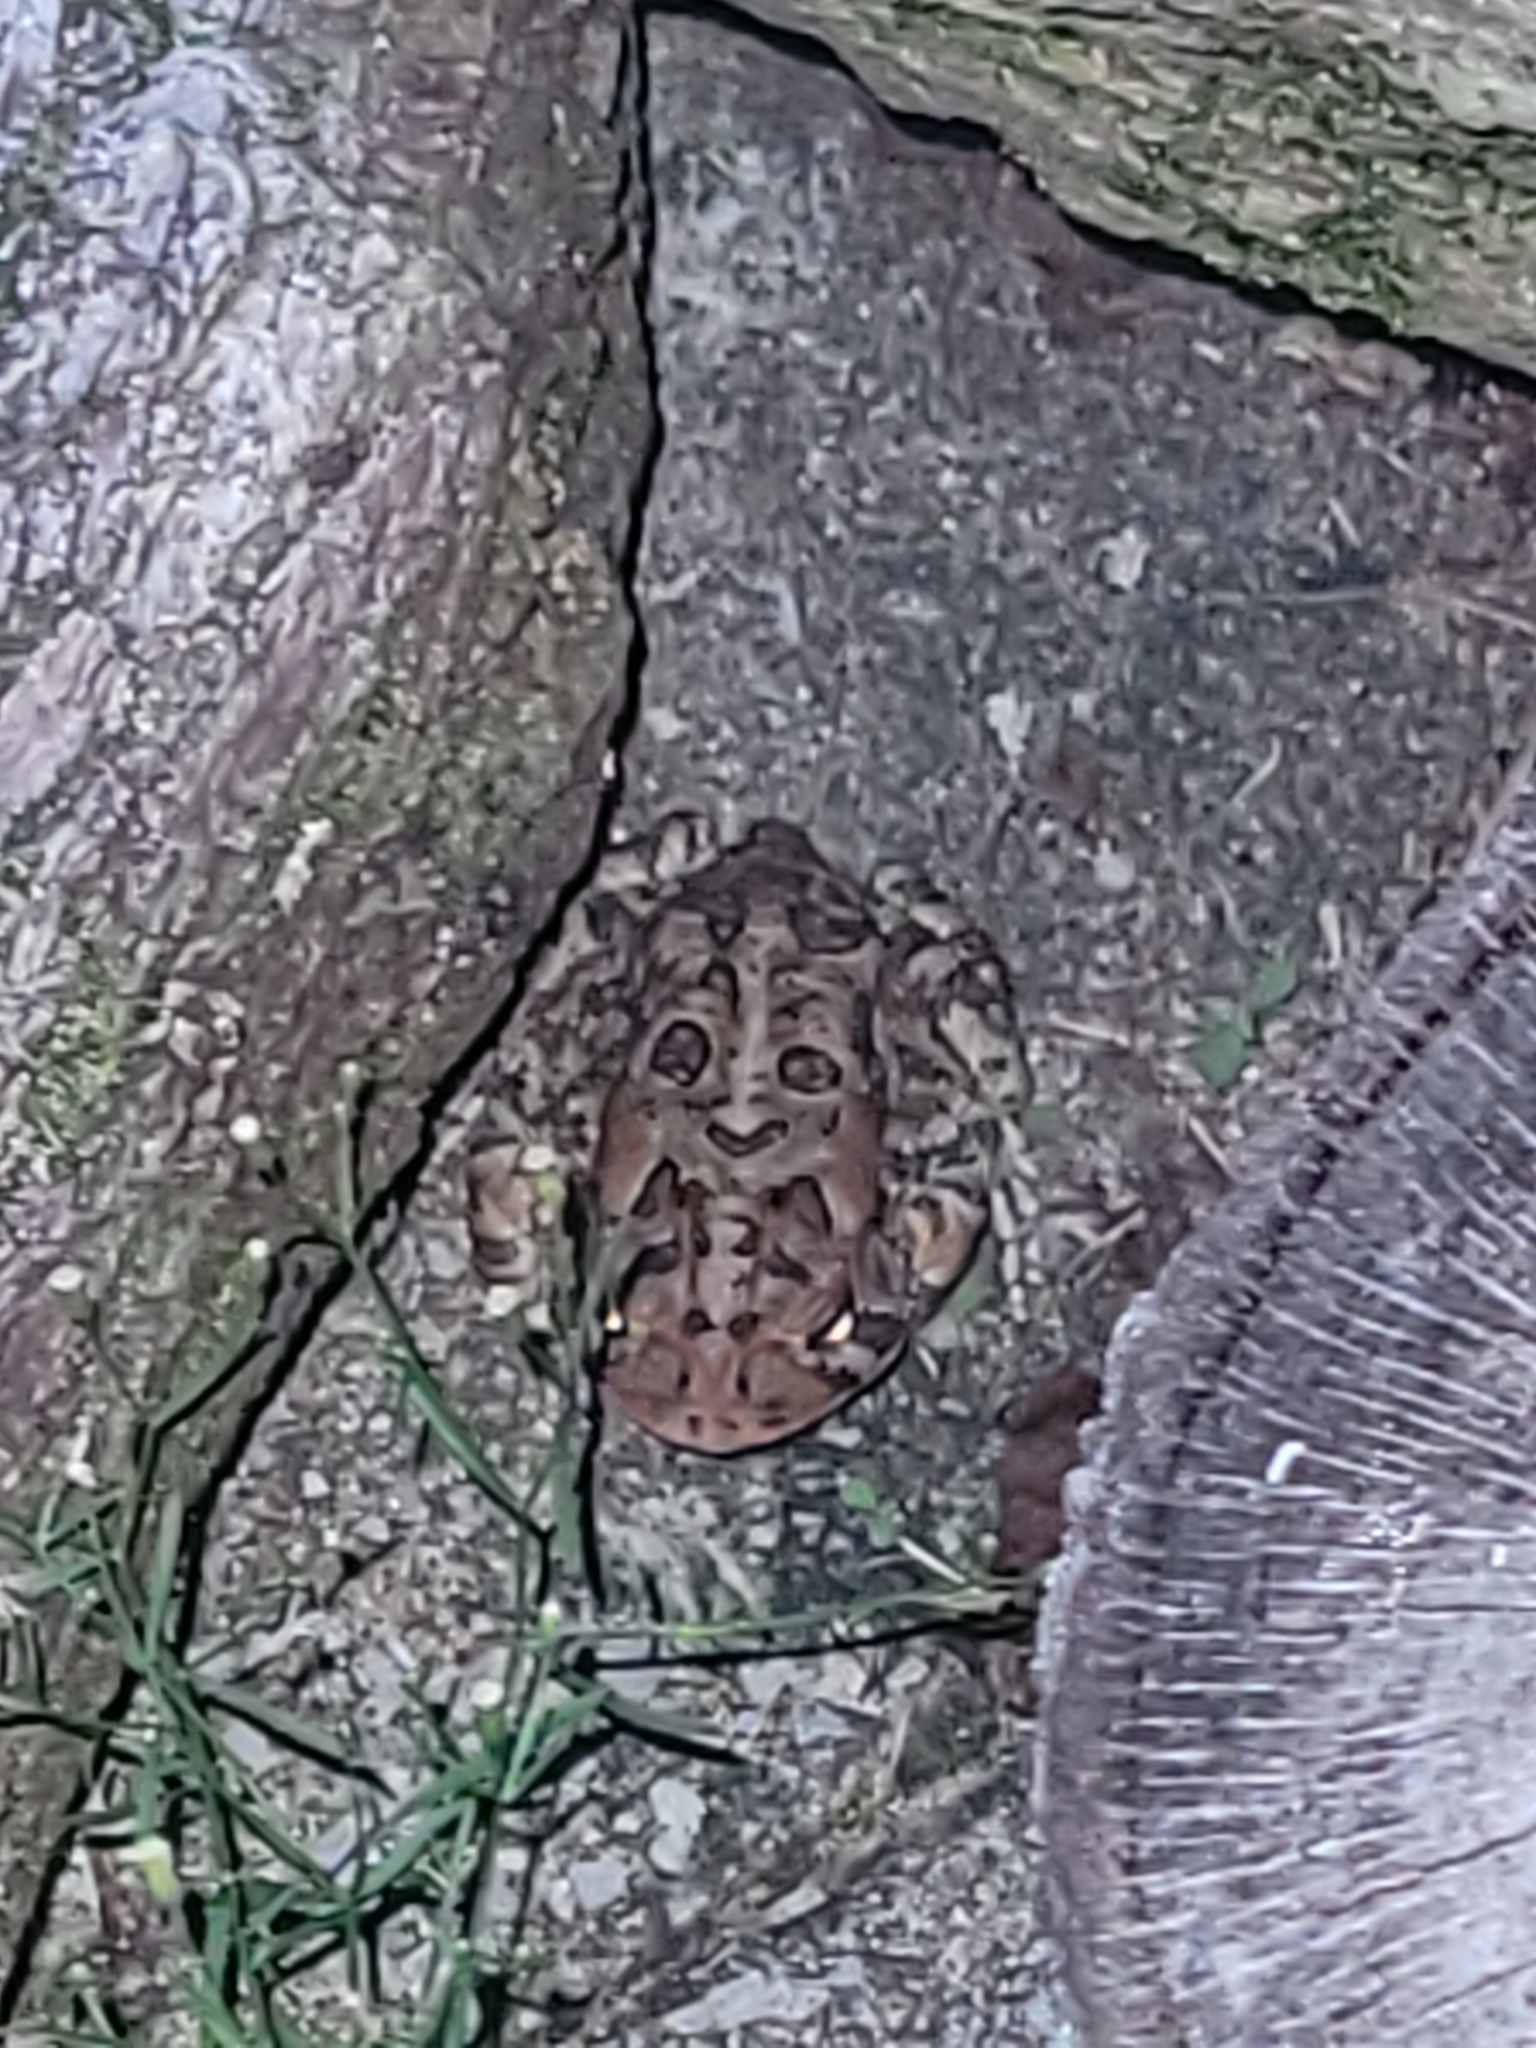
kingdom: Animalia
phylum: Chordata
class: Amphibia
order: Anura
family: Bufonidae
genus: Anaxyrus
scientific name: Anaxyrus terrestris
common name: Southern toad
